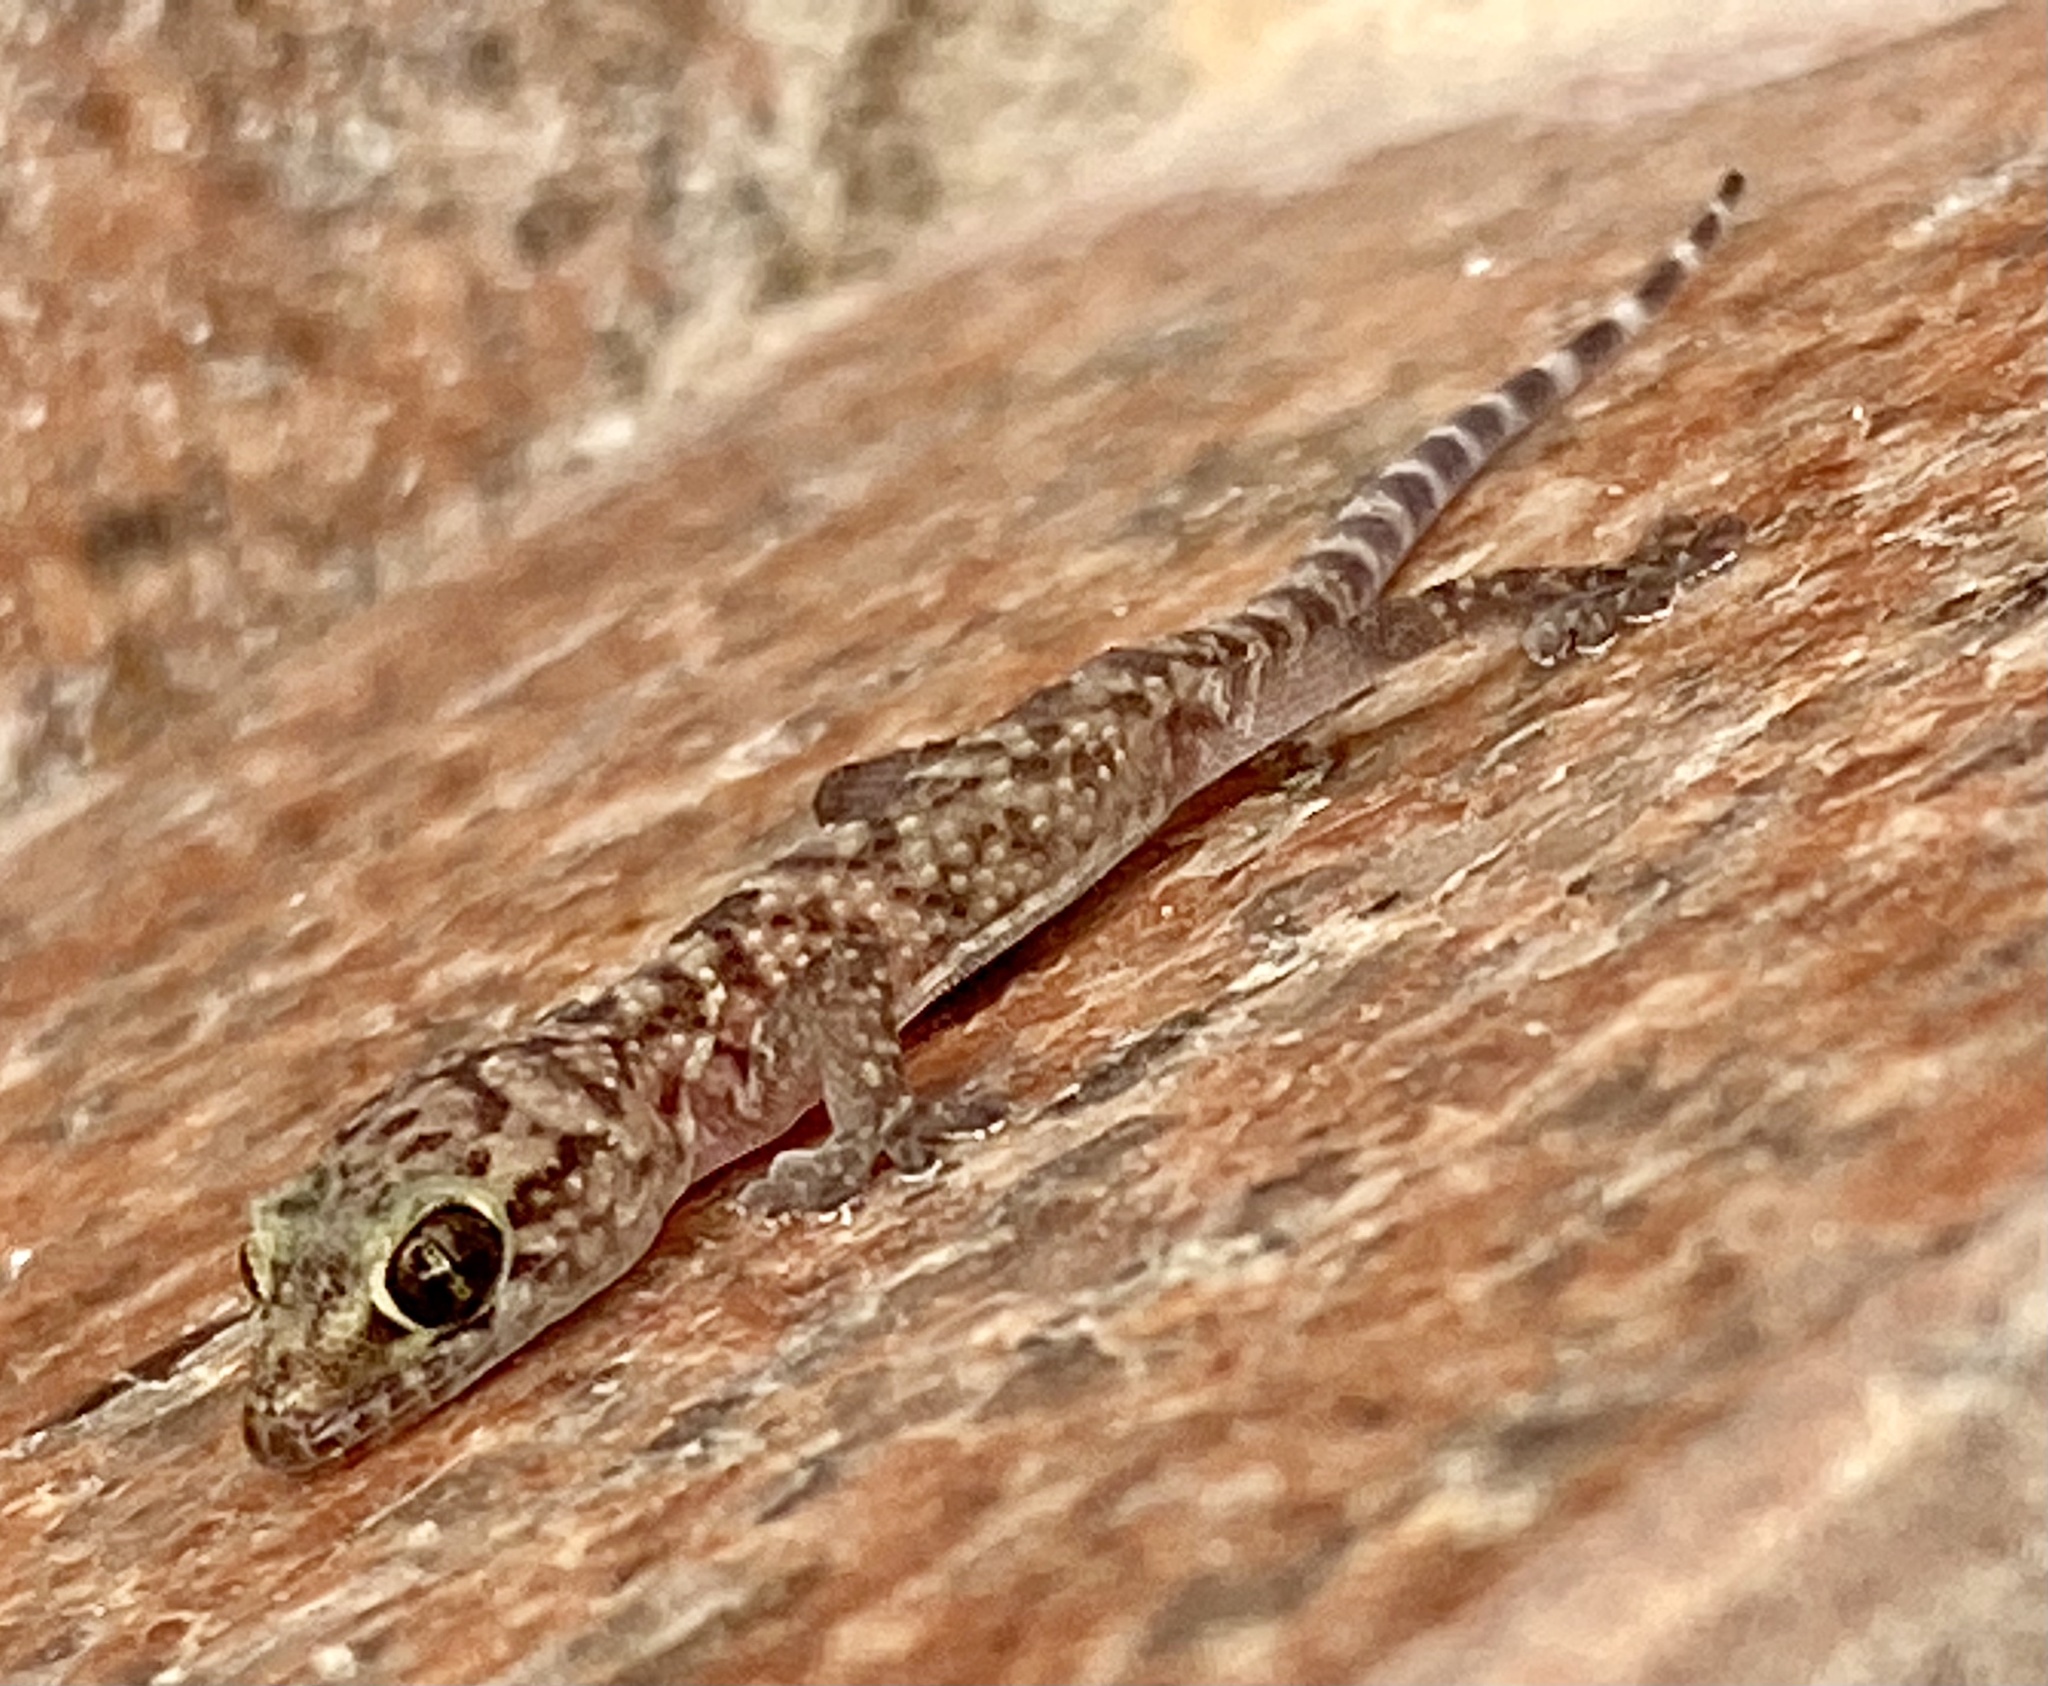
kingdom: Animalia
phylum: Chordata
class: Squamata
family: Gekkonidae
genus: Hemidactylus
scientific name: Hemidactylus turcicus
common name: Turkish gecko
